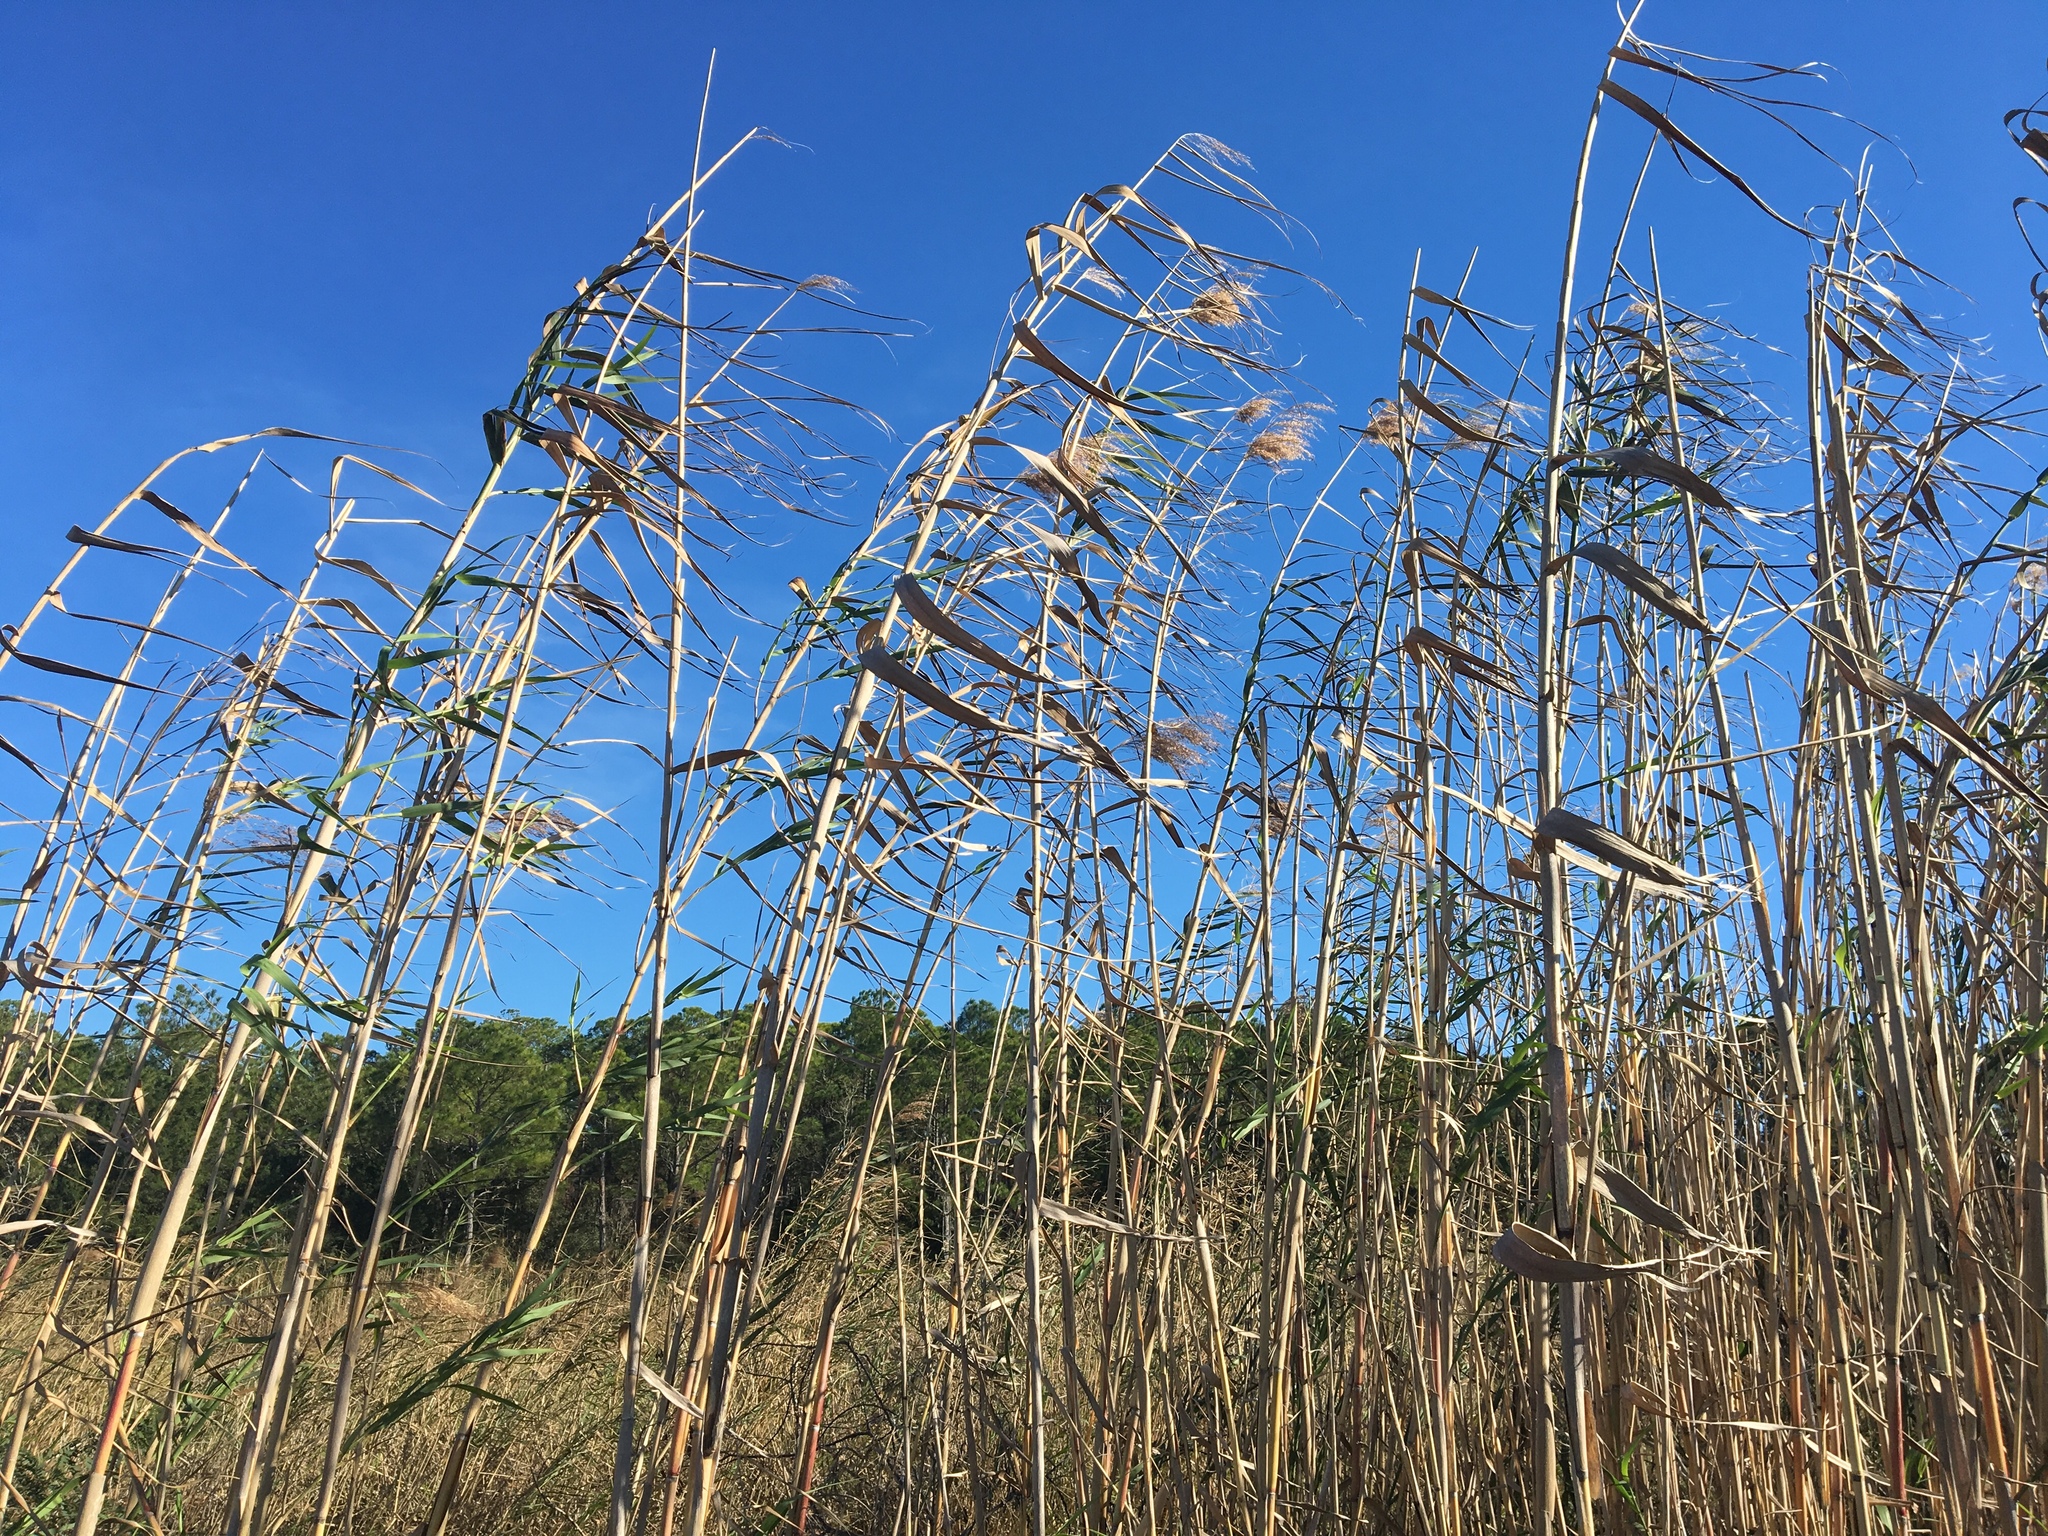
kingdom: Plantae
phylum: Tracheophyta
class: Liliopsida
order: Poales
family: Poaceae
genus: Phragmites
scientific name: Phragmites australis
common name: Common reed
